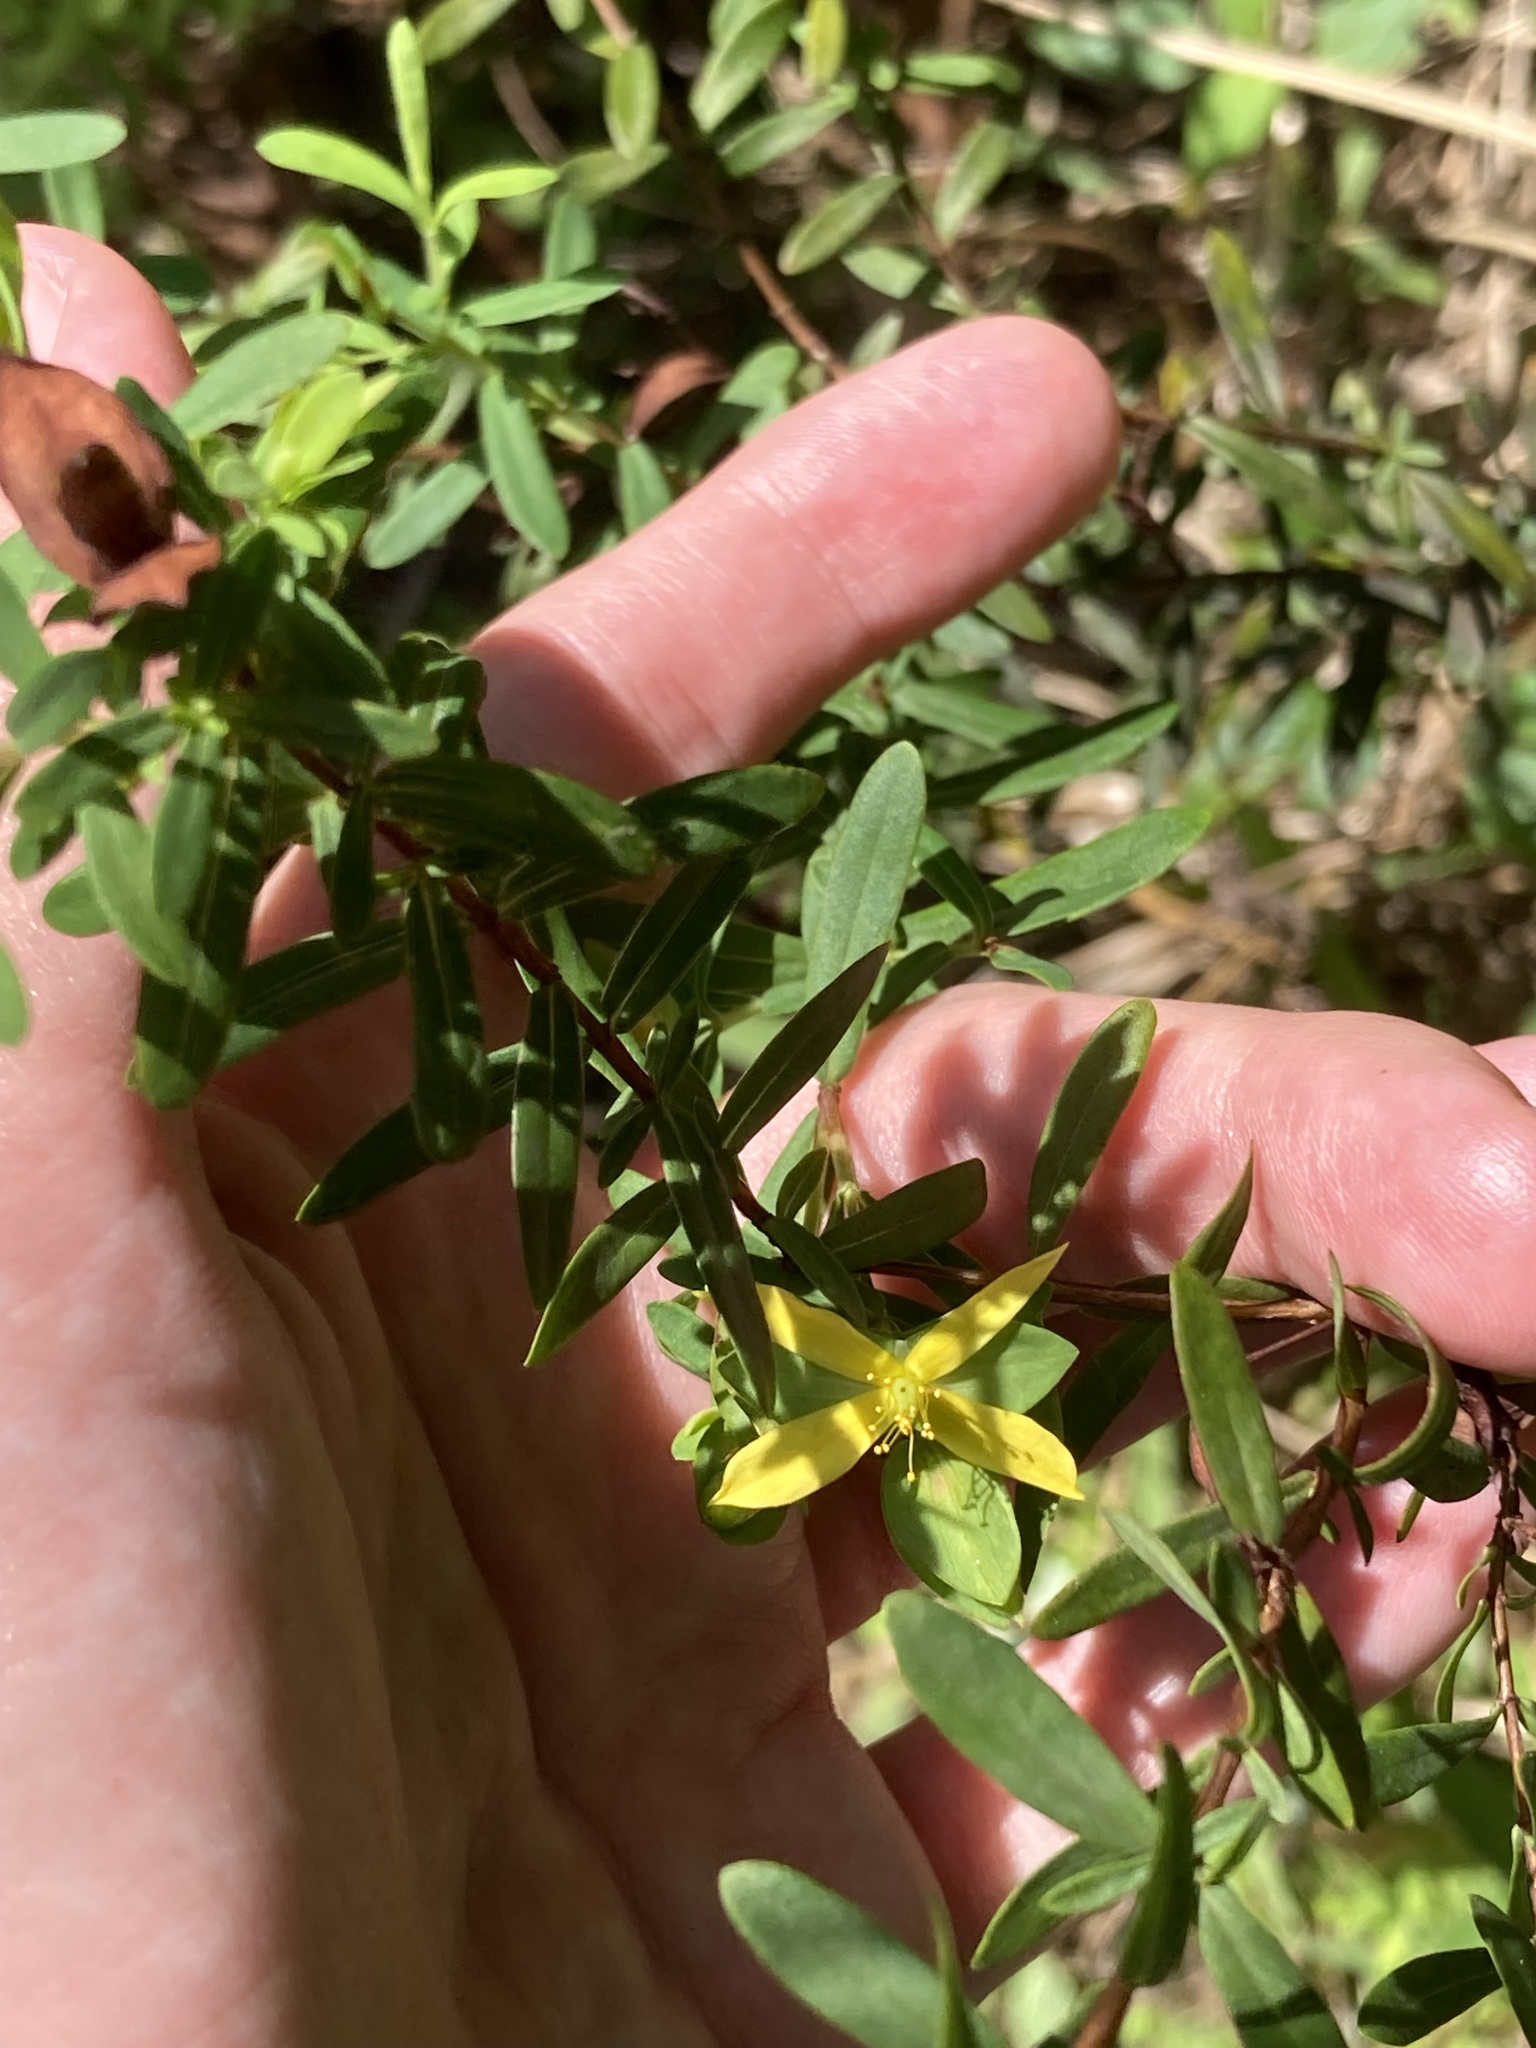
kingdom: Plantae
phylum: Tracheophyta
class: Magnoliopsida
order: Malpighiales
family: Hypericaceae
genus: Hypericum
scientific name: Hypericum hypericoides
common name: St. andrew's cross
